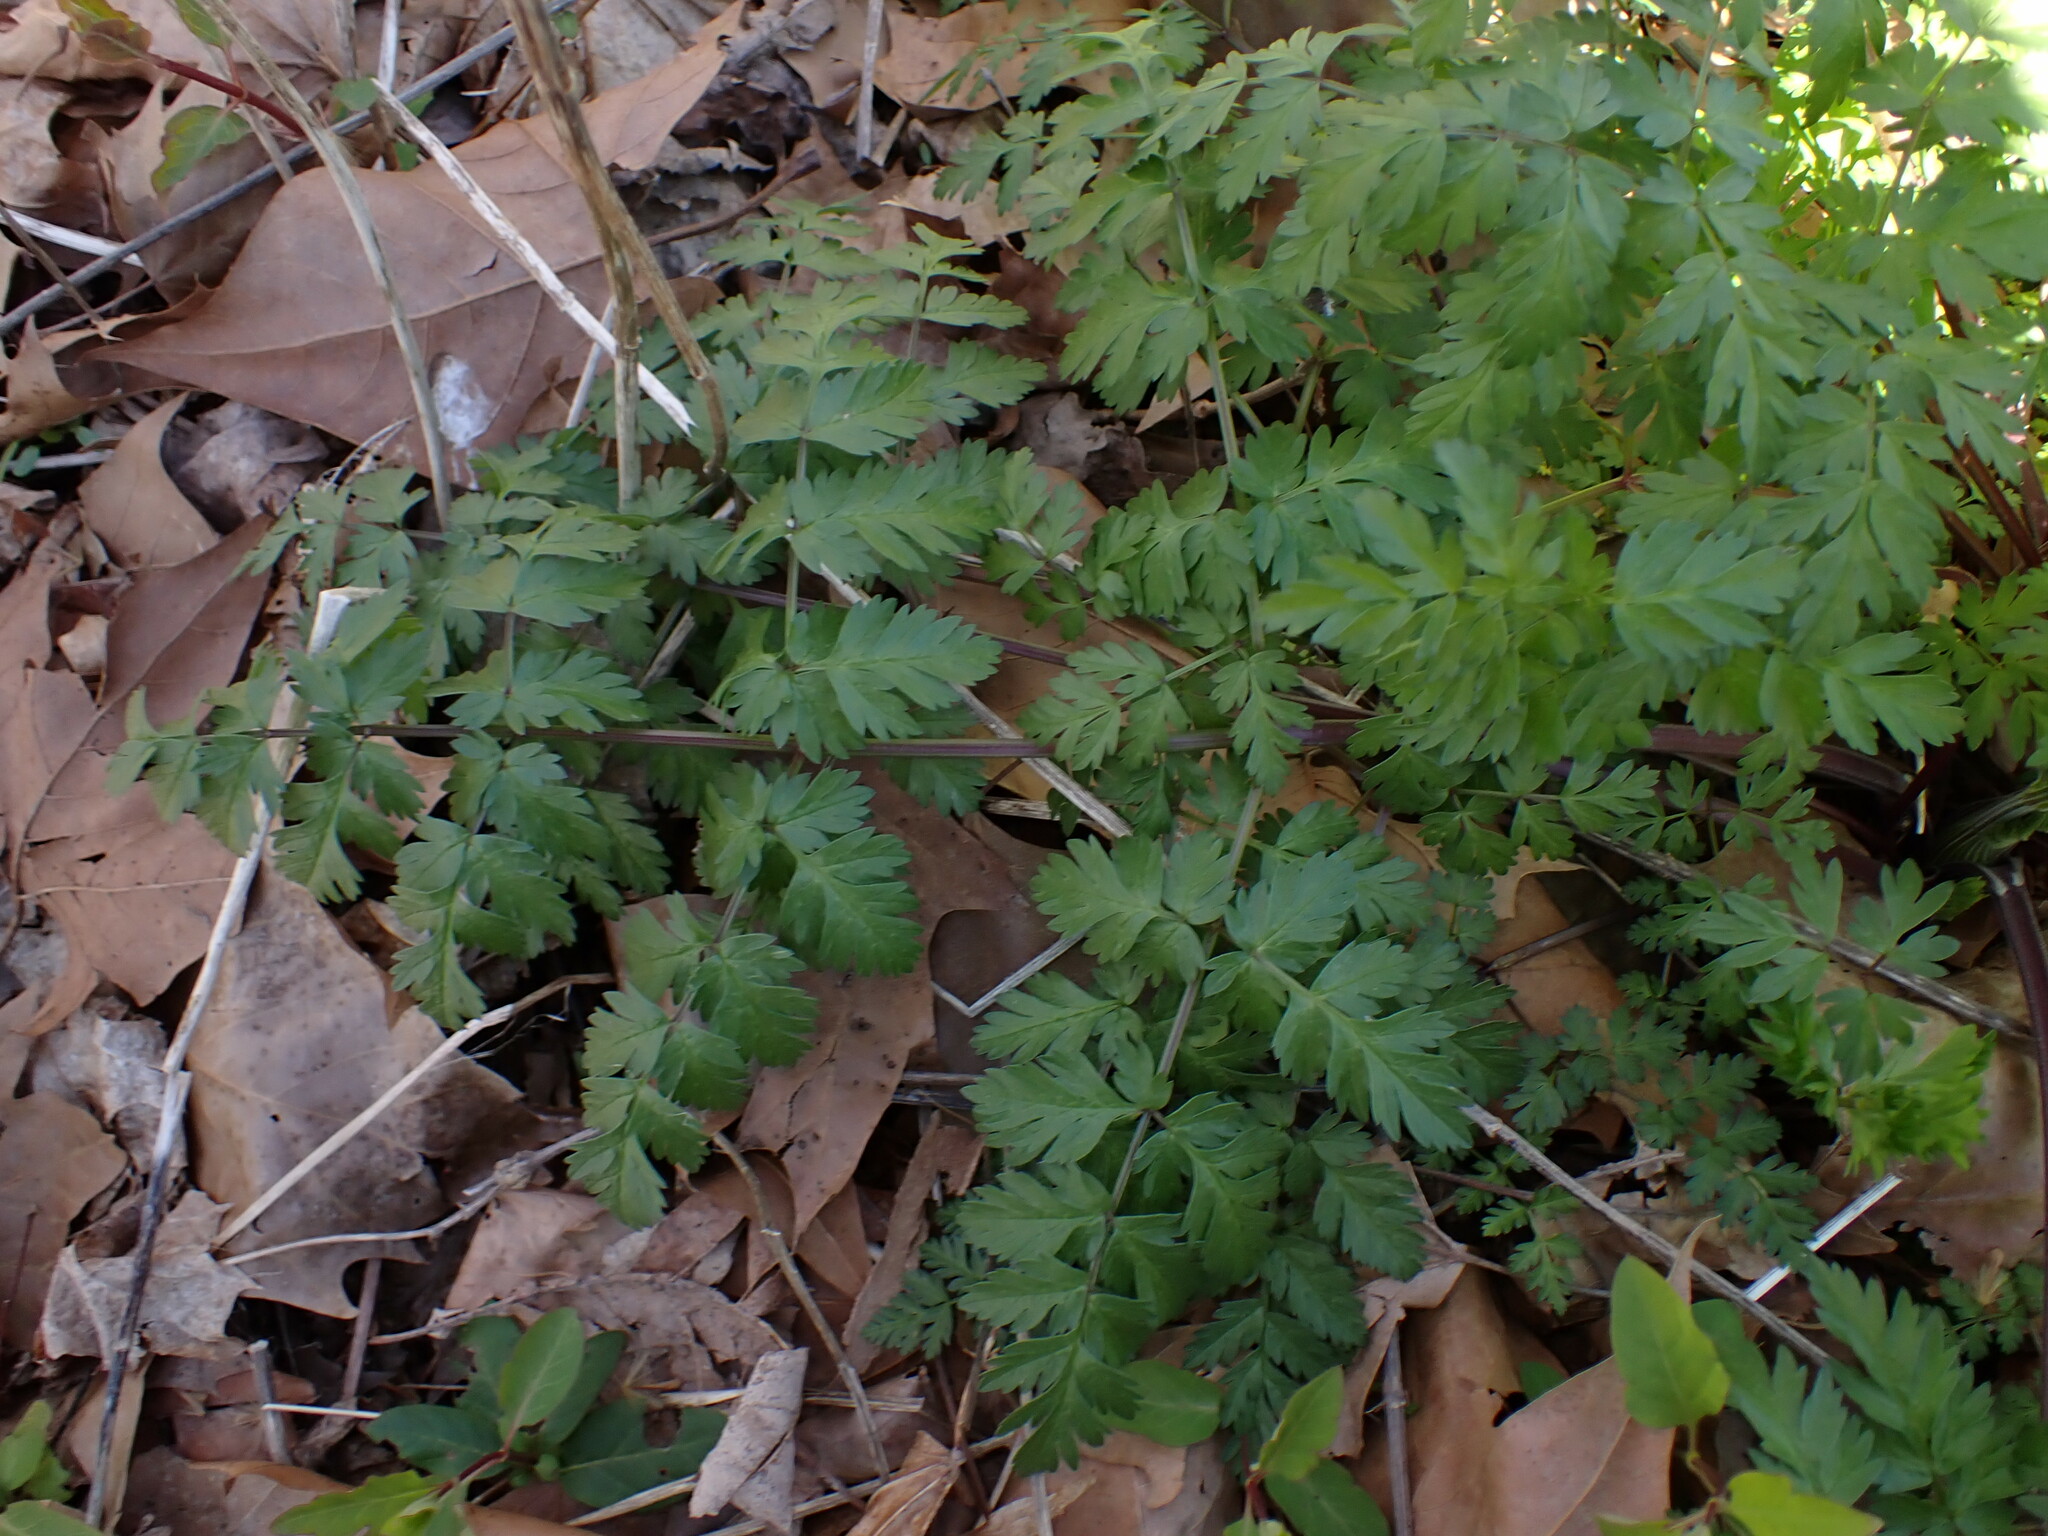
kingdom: Plantae
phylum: Tracheophyta
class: Magnoliopsida
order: Apiales
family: Apiaceae
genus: Anthriscus
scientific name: Anthriscus sylvestris
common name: Cow parsley
